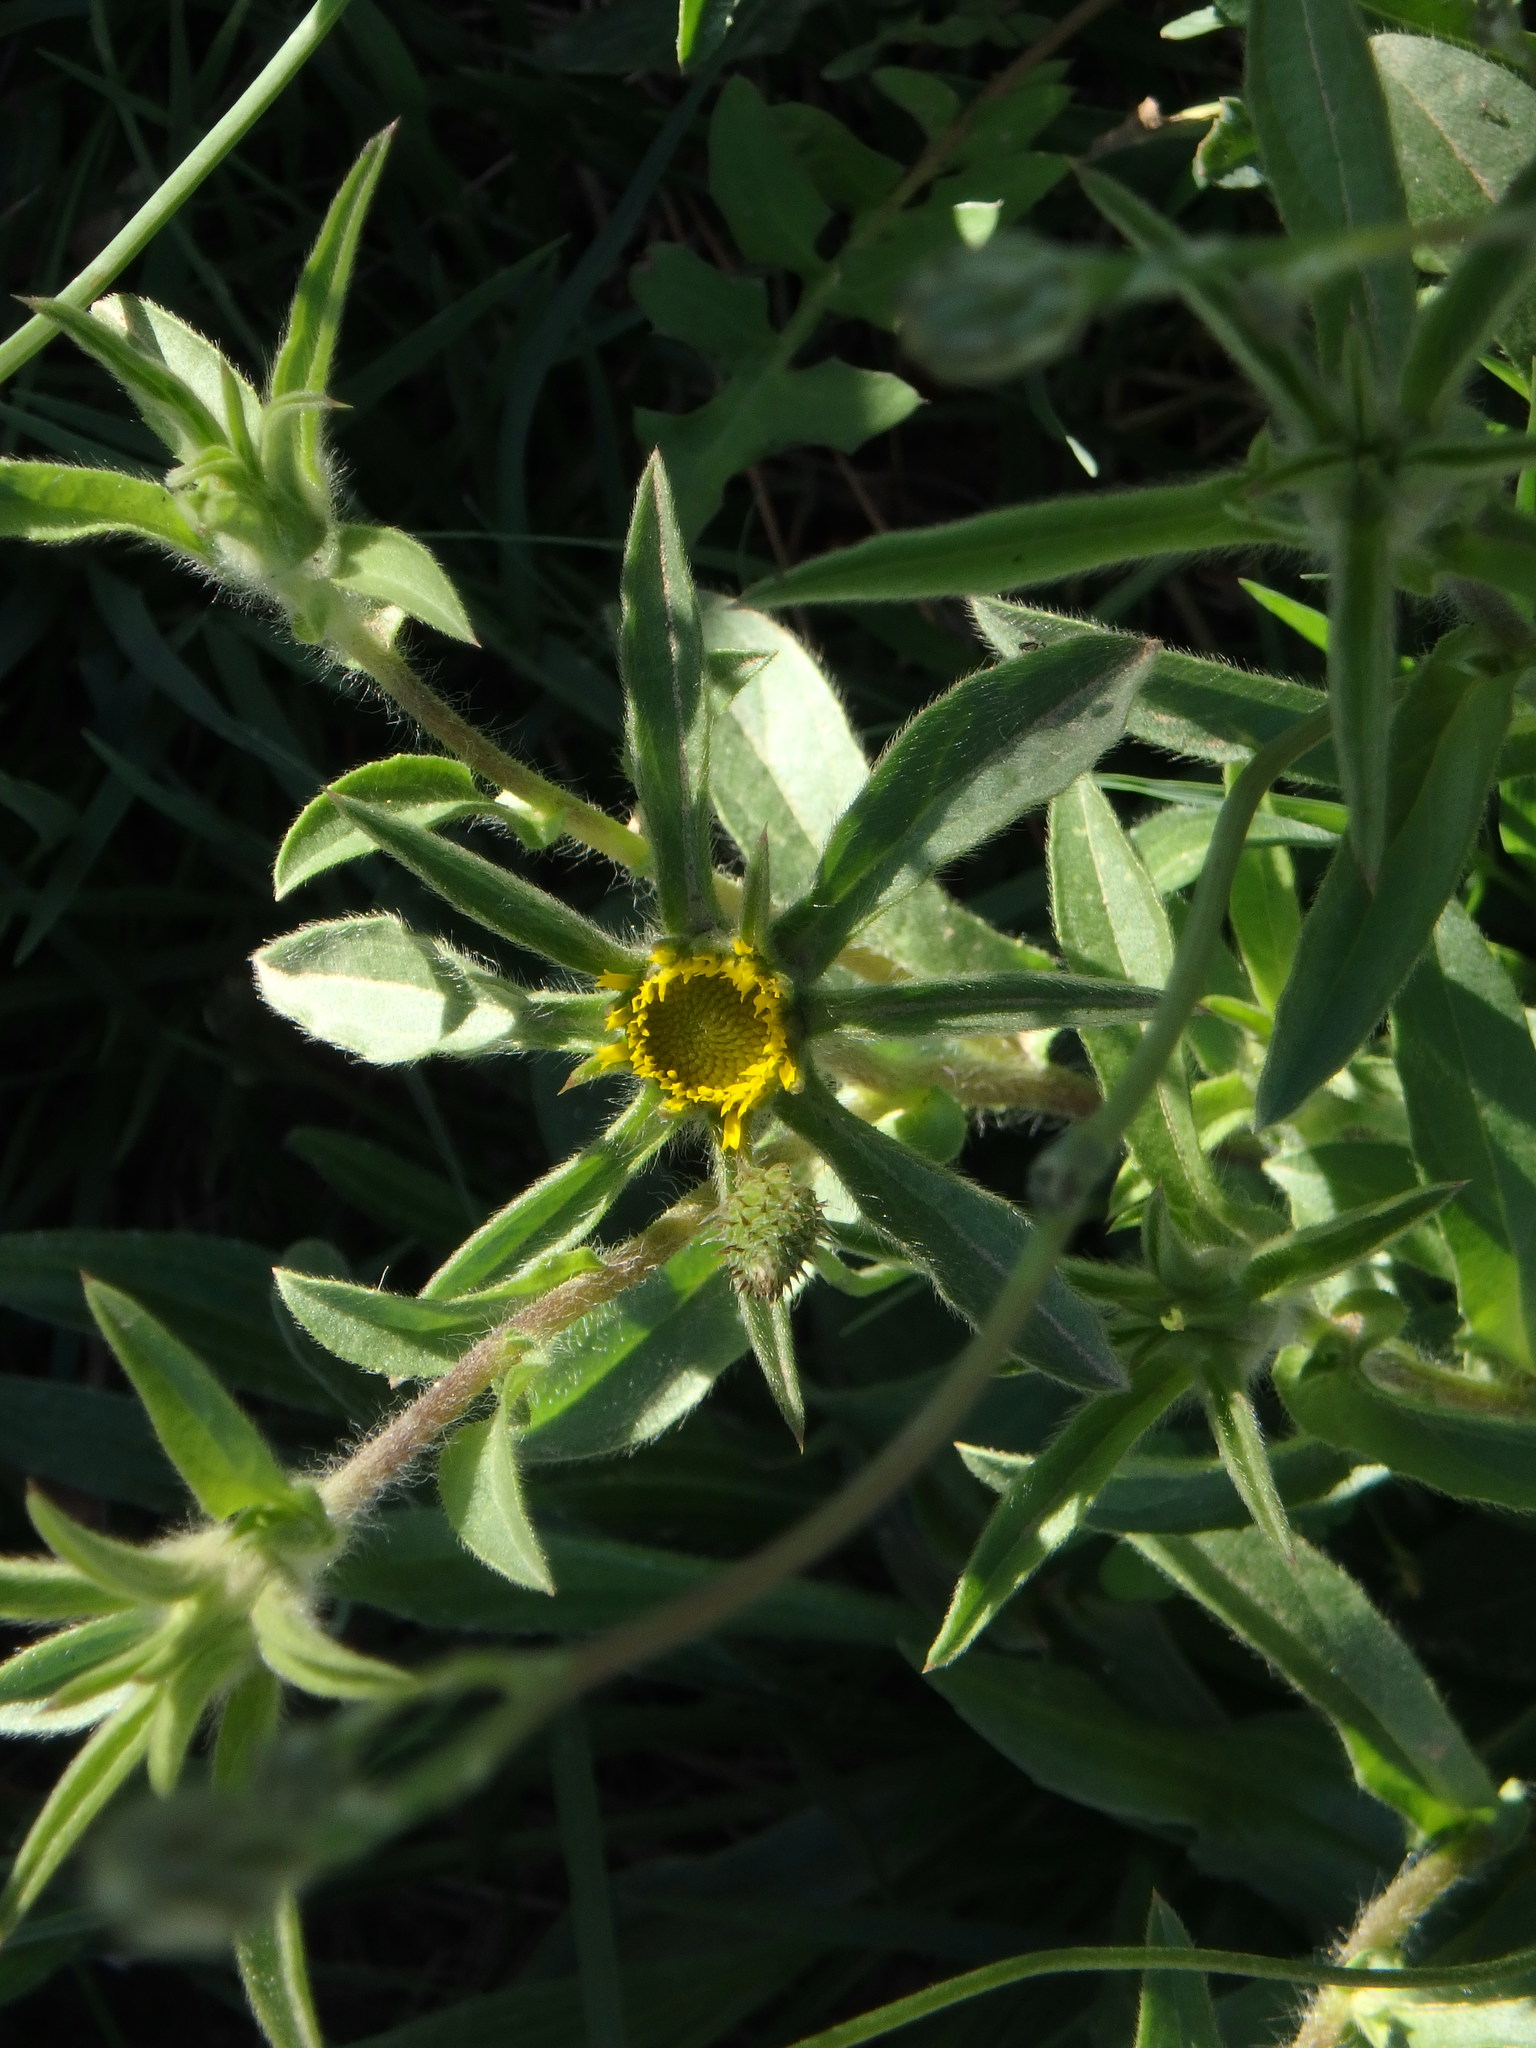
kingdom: Plantae
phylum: Tracheophyta
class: Magnoliopsida
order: Asterales
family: Asteraceae
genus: Pallenis
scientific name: Pallenis spinosa
